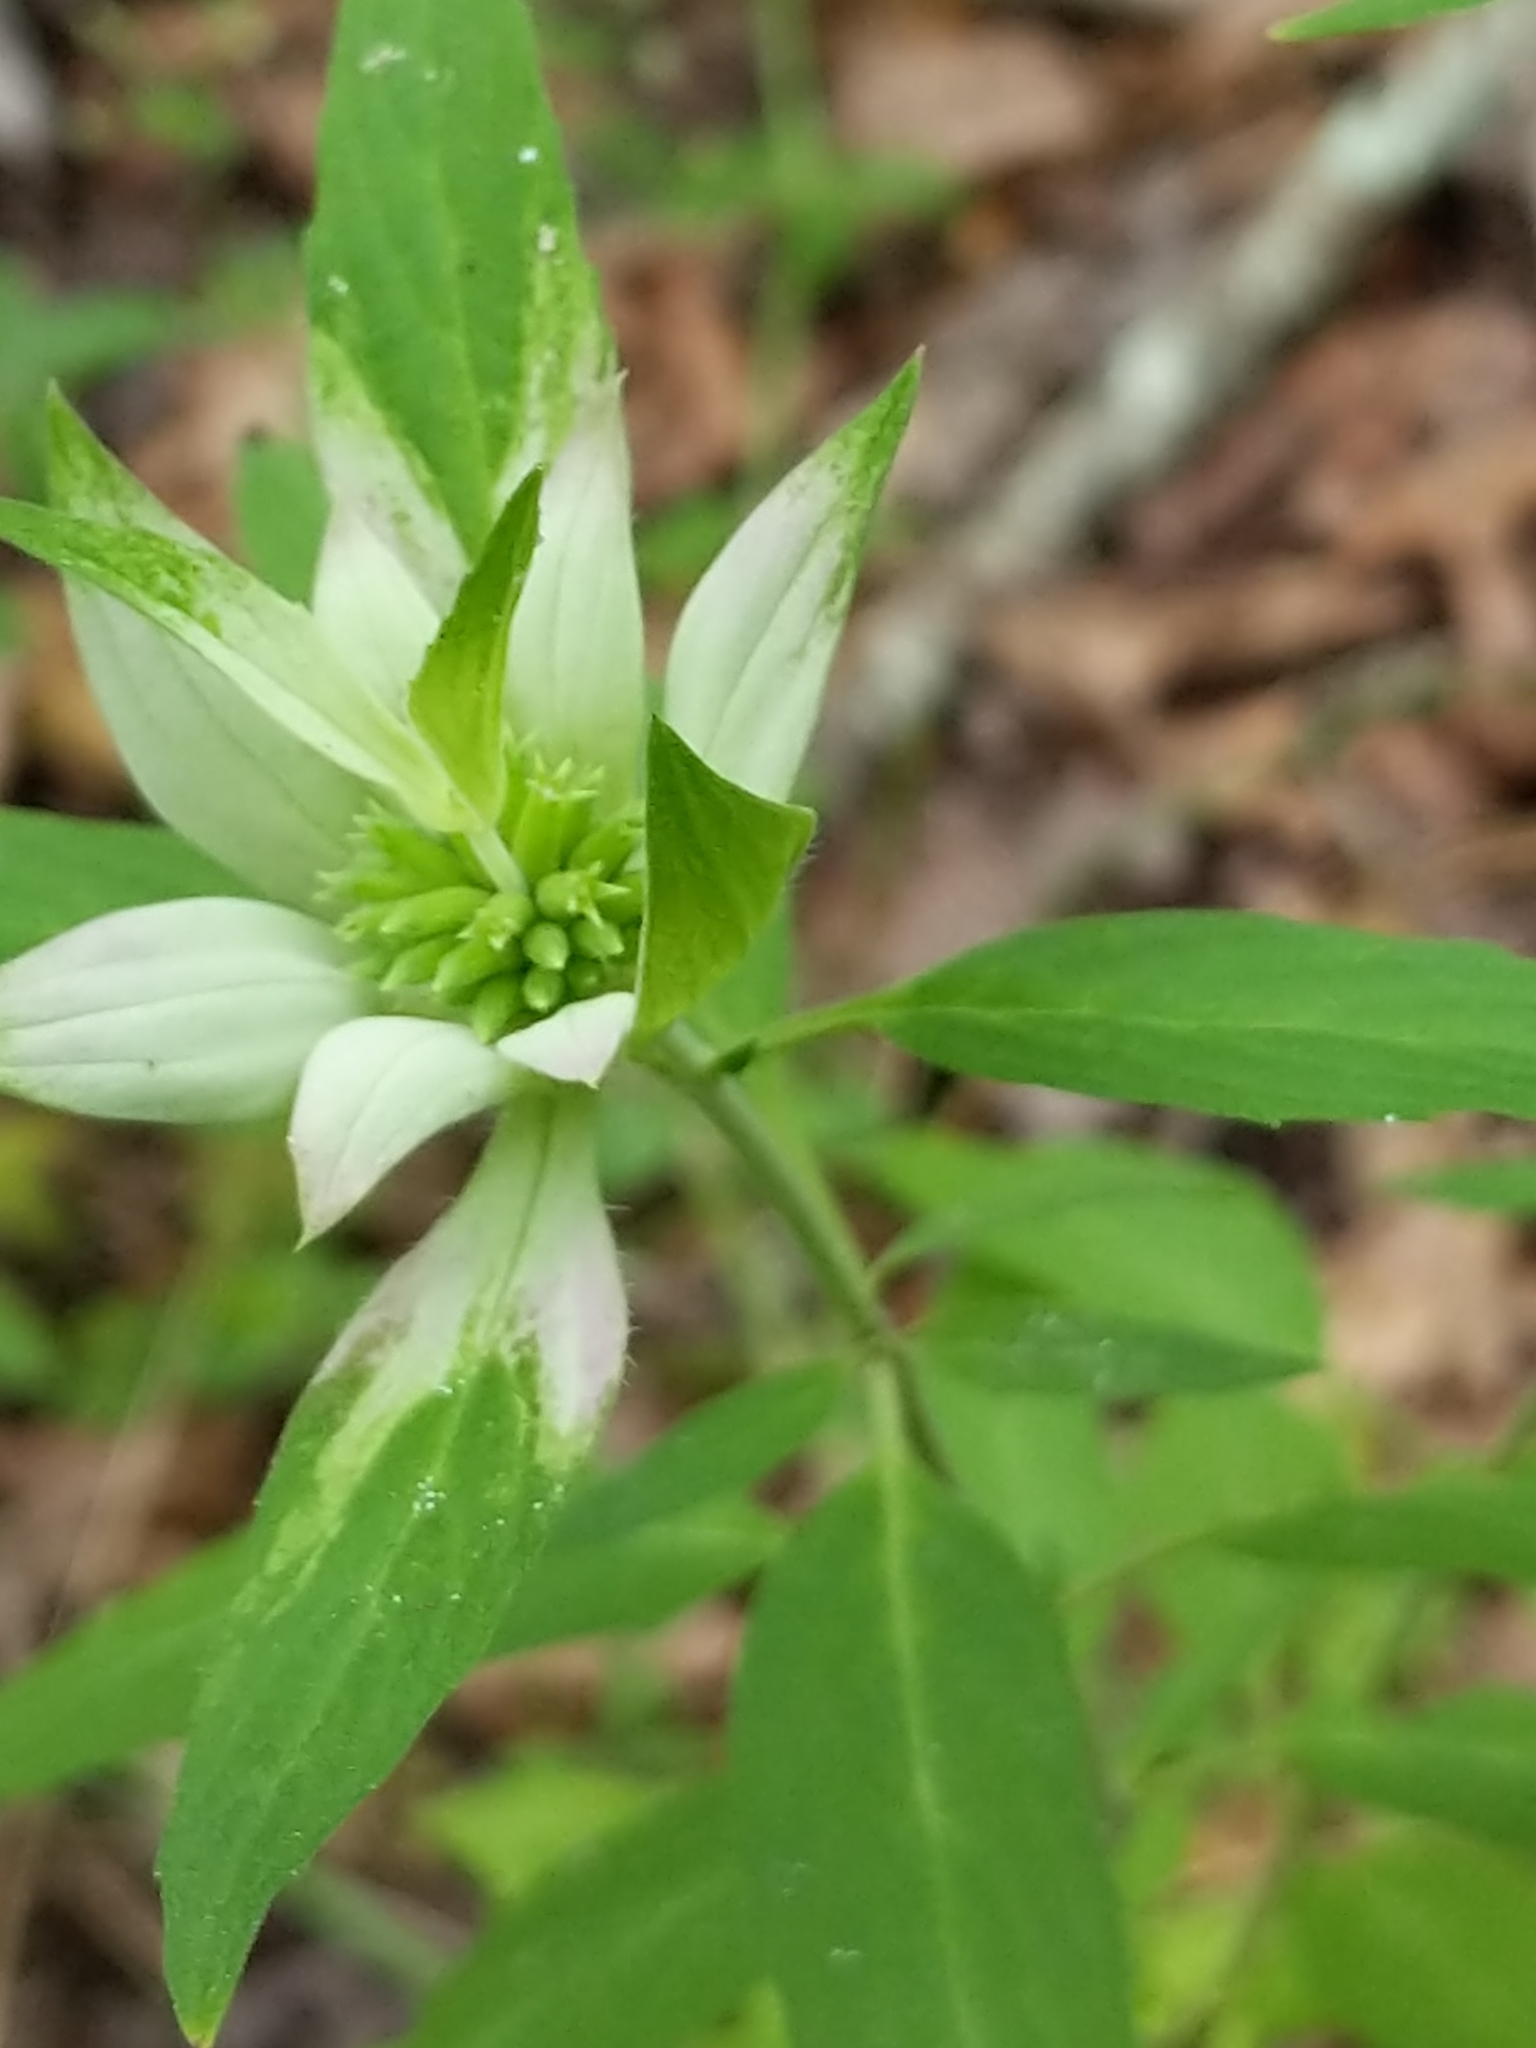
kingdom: Plantae
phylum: Tracheophyta
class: Magnoliopsida
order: Lamiales
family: Lamiaceae
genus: Monarda
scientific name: Monarda punctata
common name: Dotted monarda
